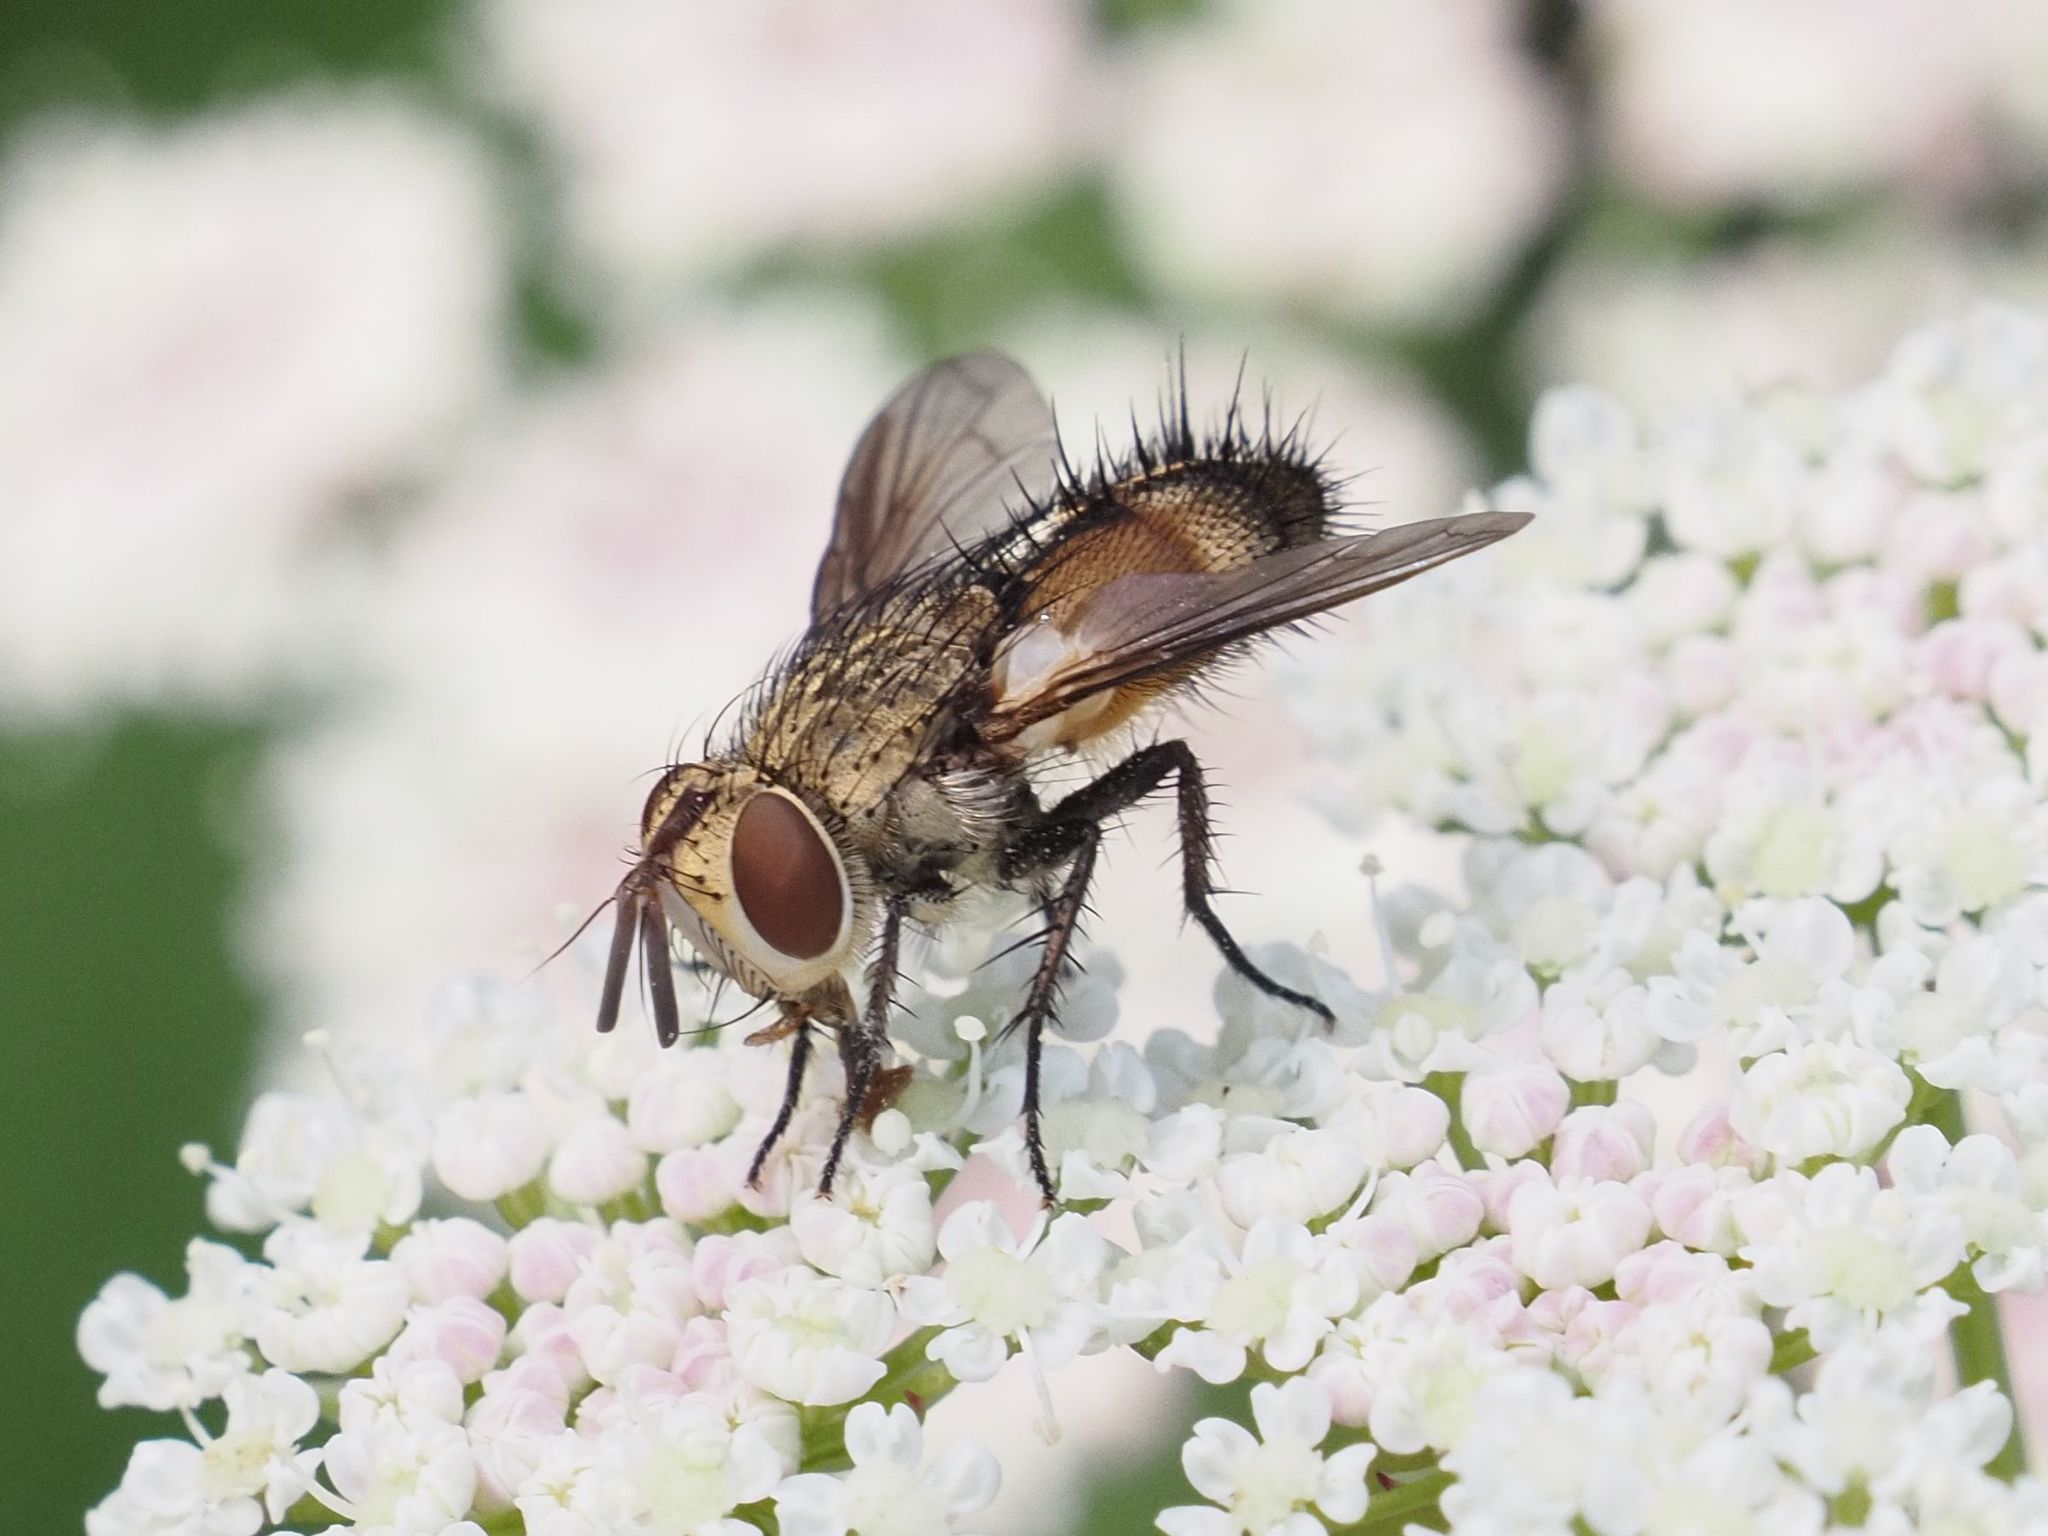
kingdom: Animalia
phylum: Arthropoda
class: Insecta
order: Diptera
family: Tachinidae
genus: Frontina
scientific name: Frontina laeta
